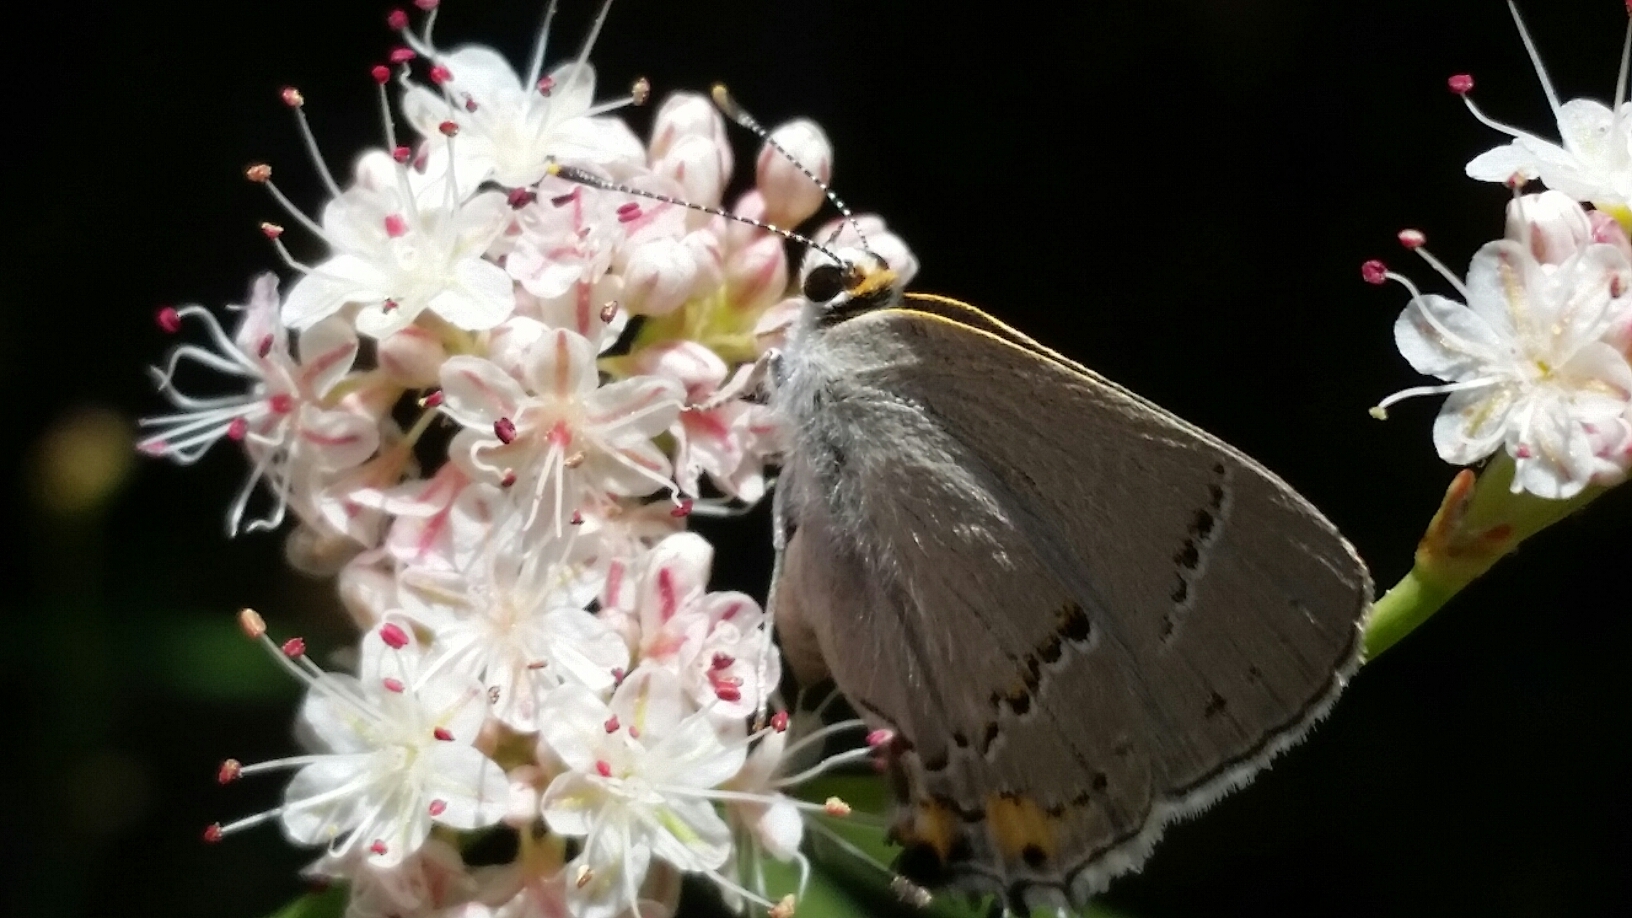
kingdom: Animalia
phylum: Arthropoda
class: Insecta
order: Lepidoptera
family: Lycaenidae
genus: Strymon
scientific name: Strymon melinus
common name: Gray hairstreak
